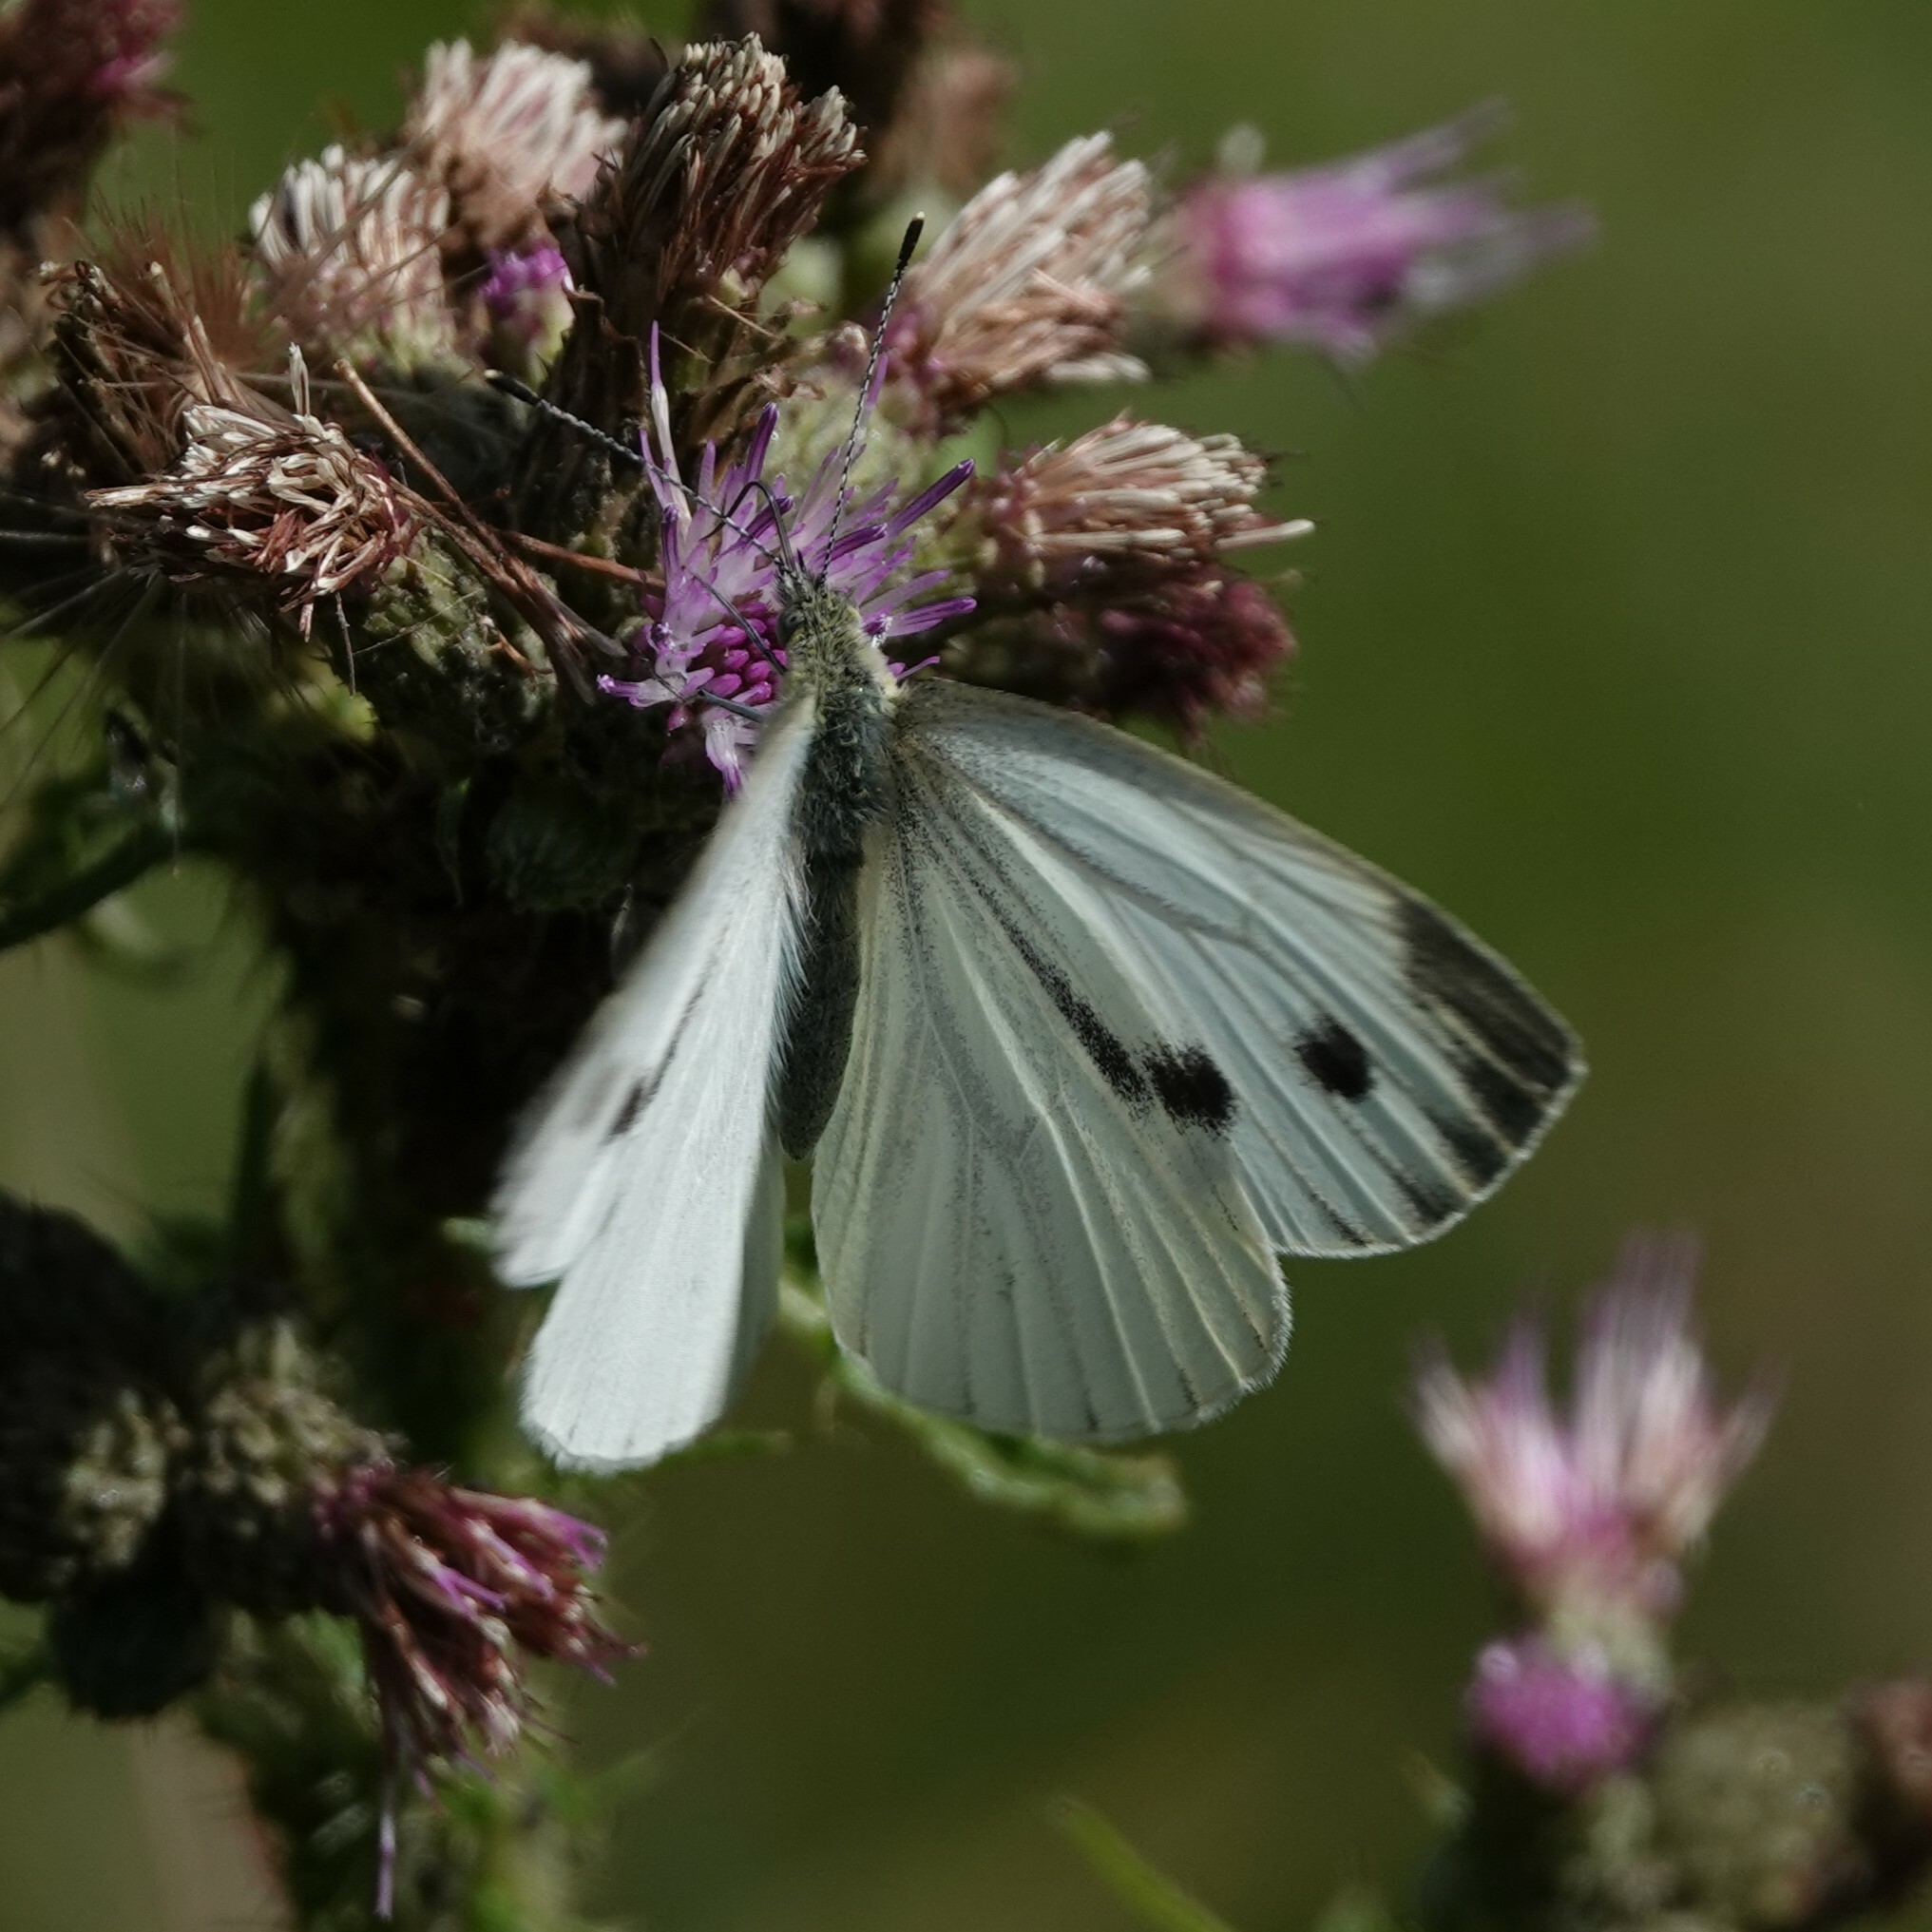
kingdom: Animalia
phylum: Arthropoda
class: Insecta
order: Lepidoptera
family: Pieridae
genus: Pieris
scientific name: Pieris napi
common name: Green-veined white
